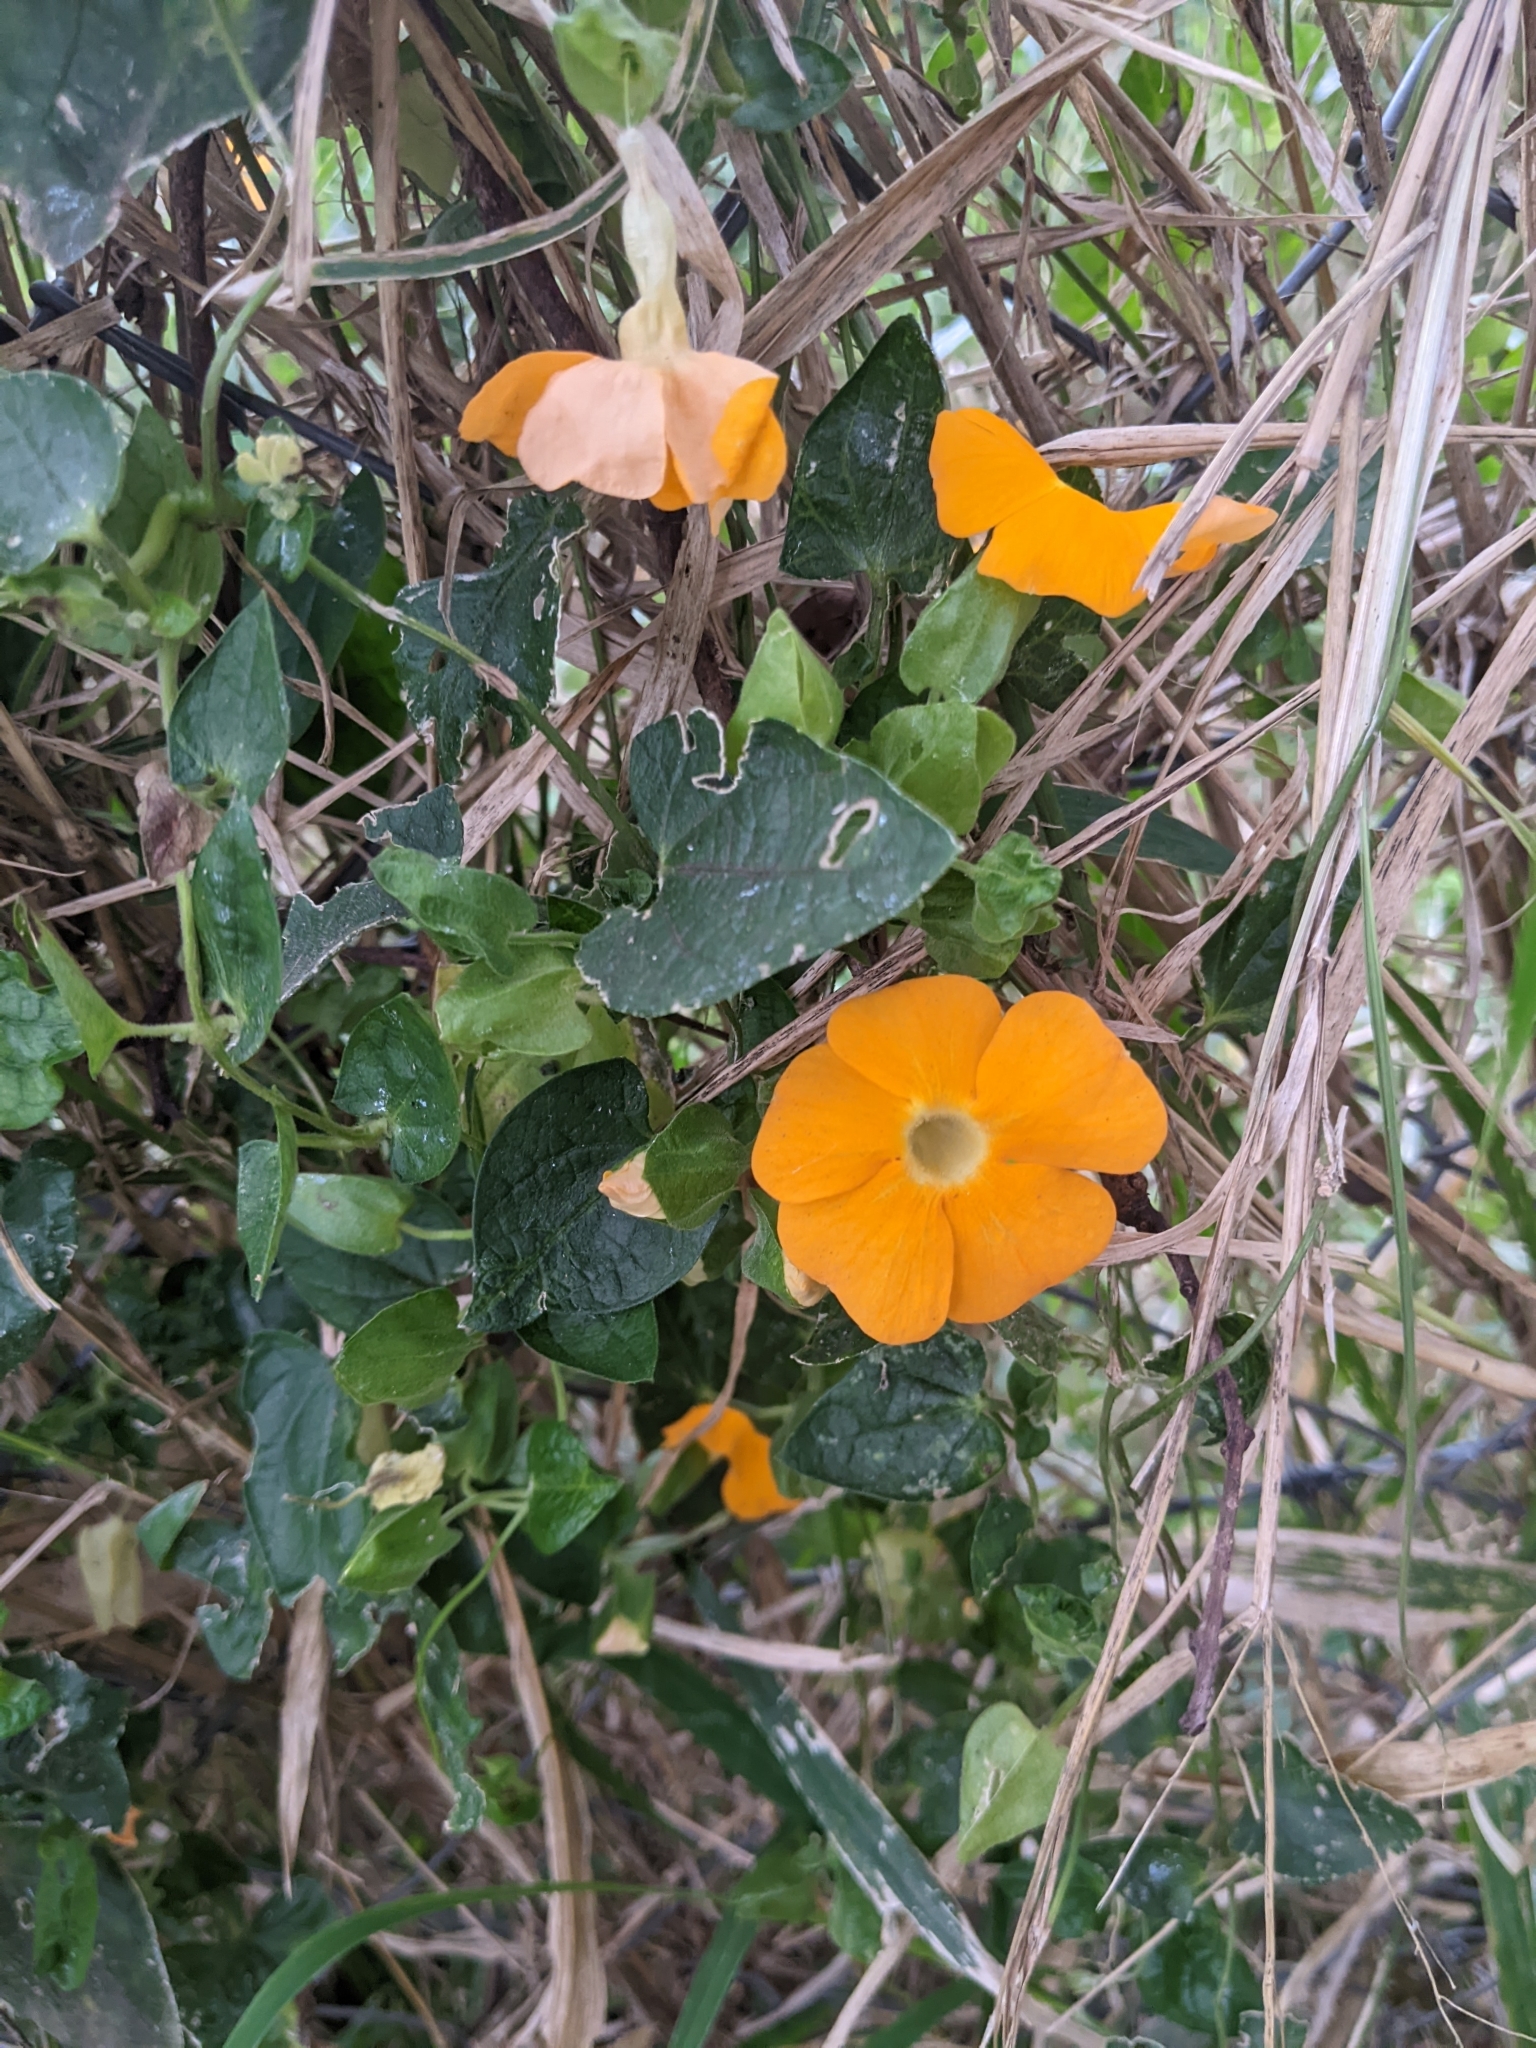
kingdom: Plantae
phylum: Tracheophyta
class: Magnoliopsida
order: Lamiales
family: Acanthaceae
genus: Thunbergia
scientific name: Thunbergia alata
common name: Blackeyed susan vine
